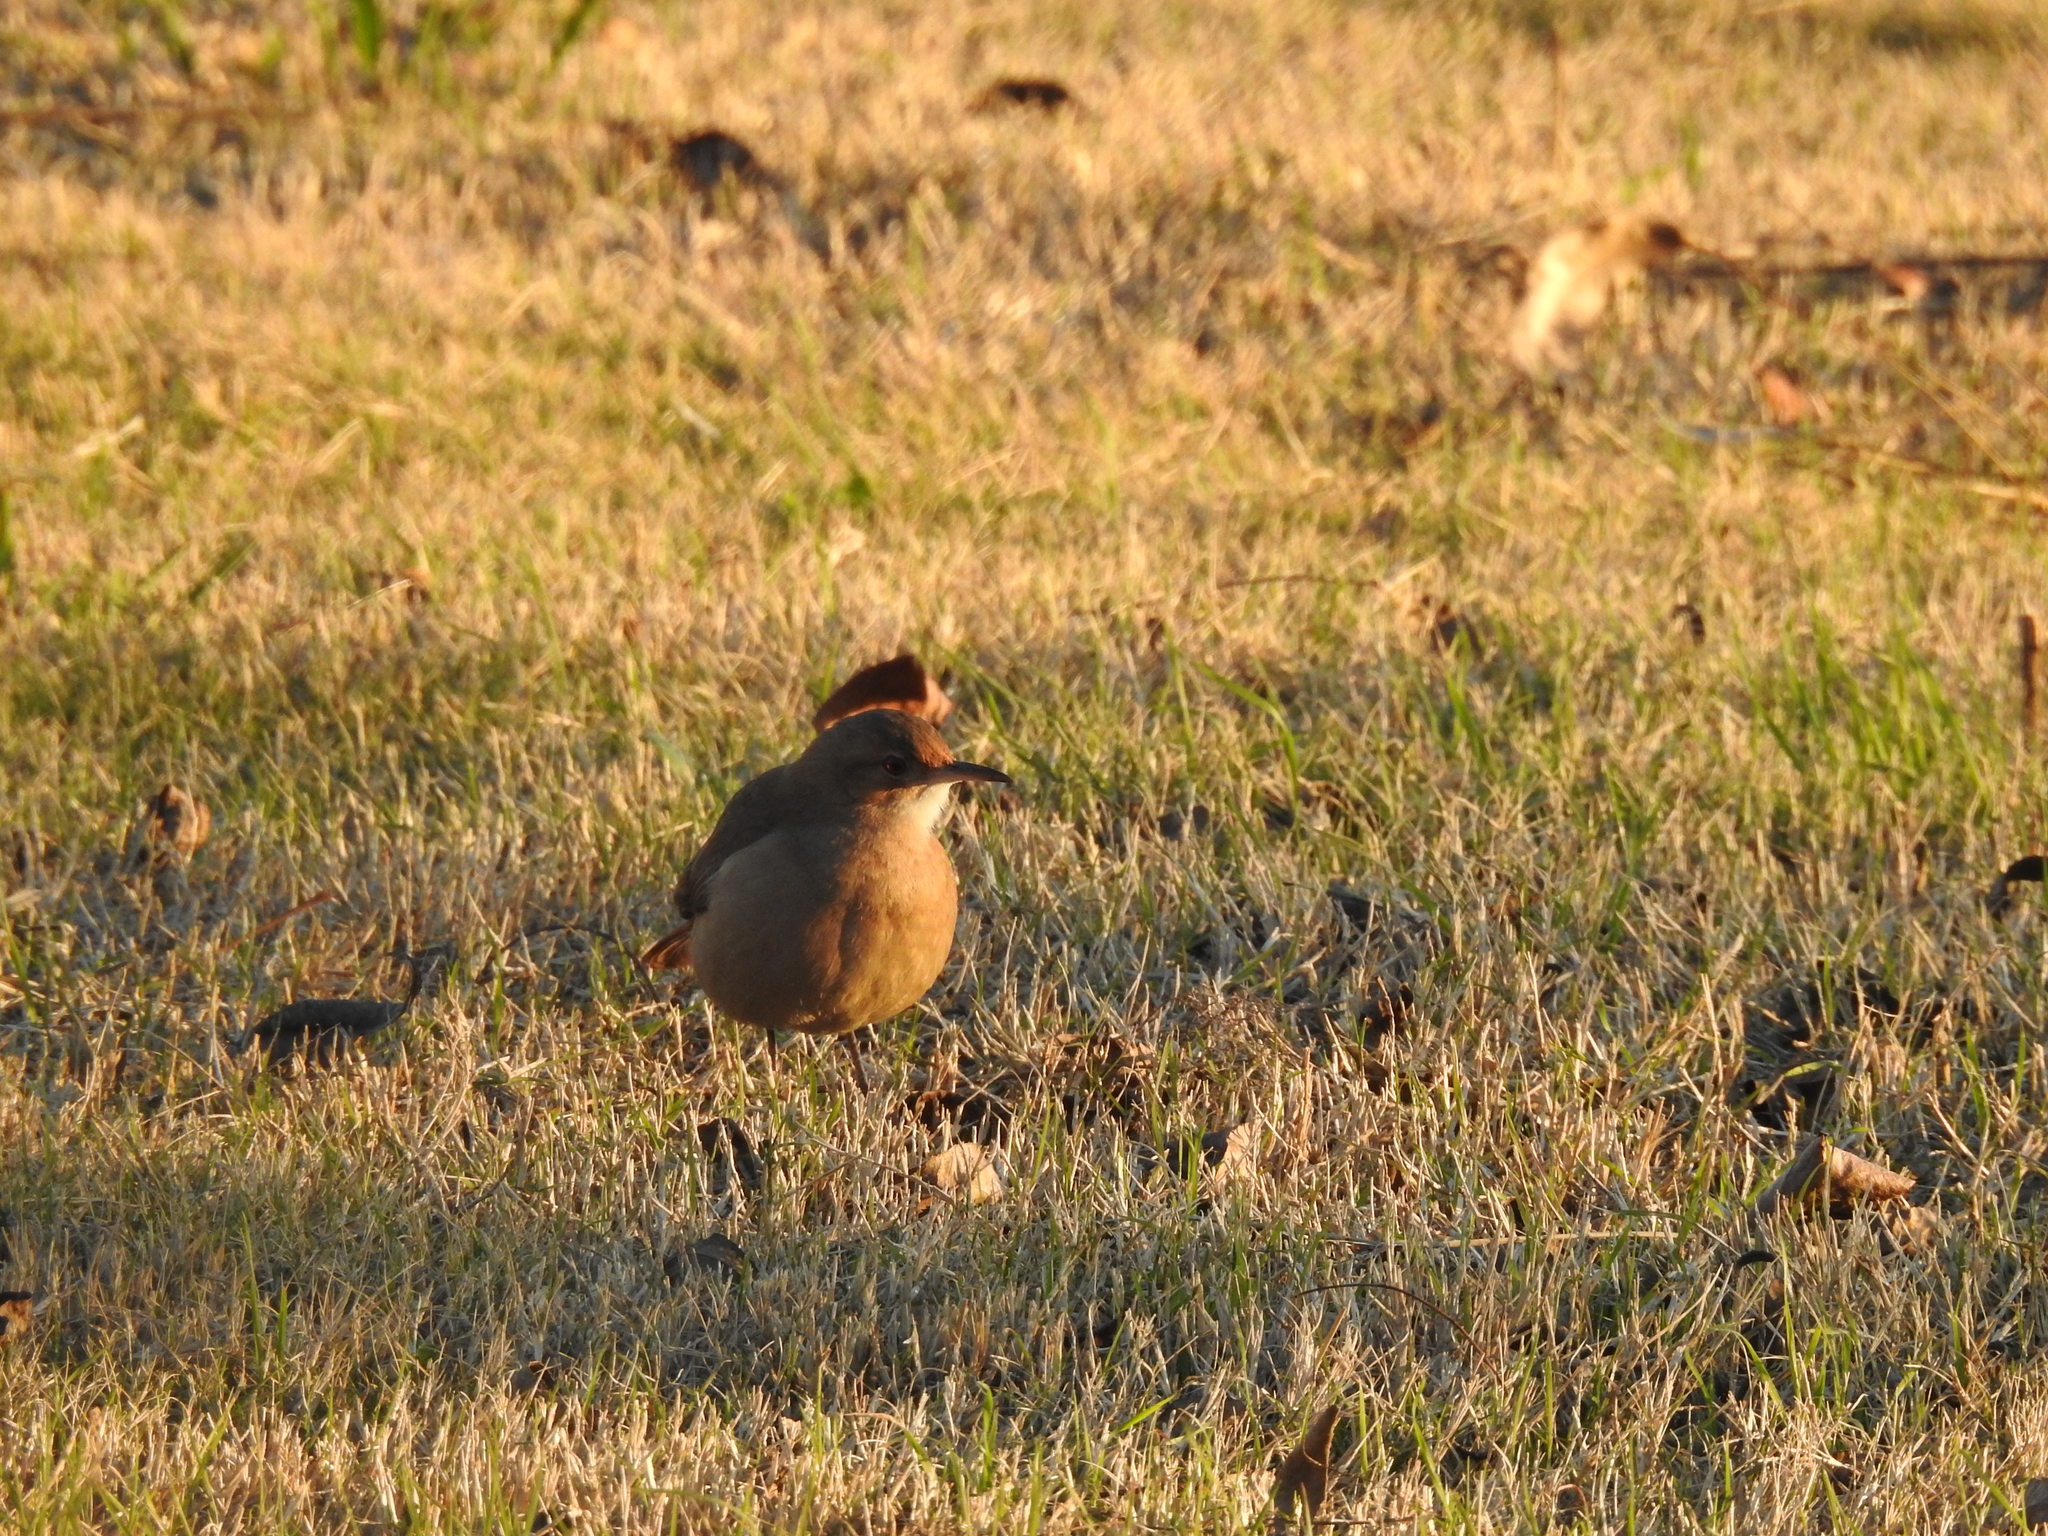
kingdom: Animalia
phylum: Chordata
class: Aves
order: Passeriformes
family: Furnariidae
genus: Furnarius
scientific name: Furnarius rufus
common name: Rufous hornero
